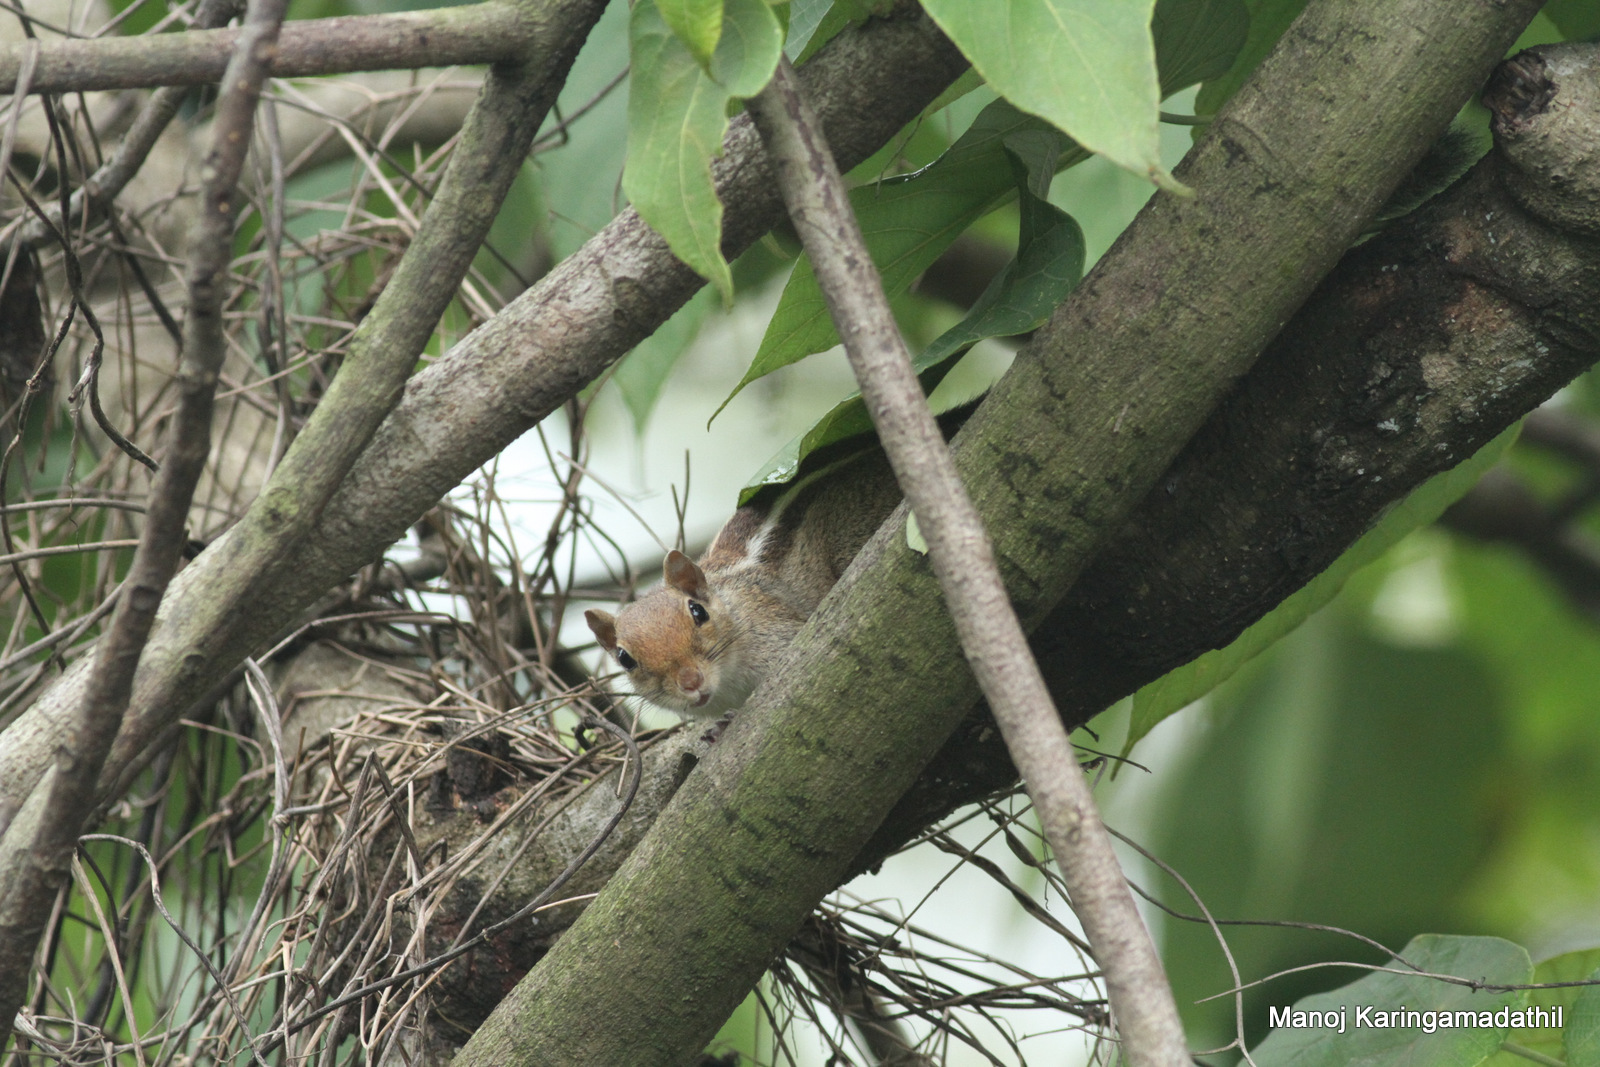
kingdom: Animalia
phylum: Chordata
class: Mammalia
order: Rodentia
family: Sciuridae
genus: Funambulus
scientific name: Funambulus palmarum
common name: Indian palm squirrel
